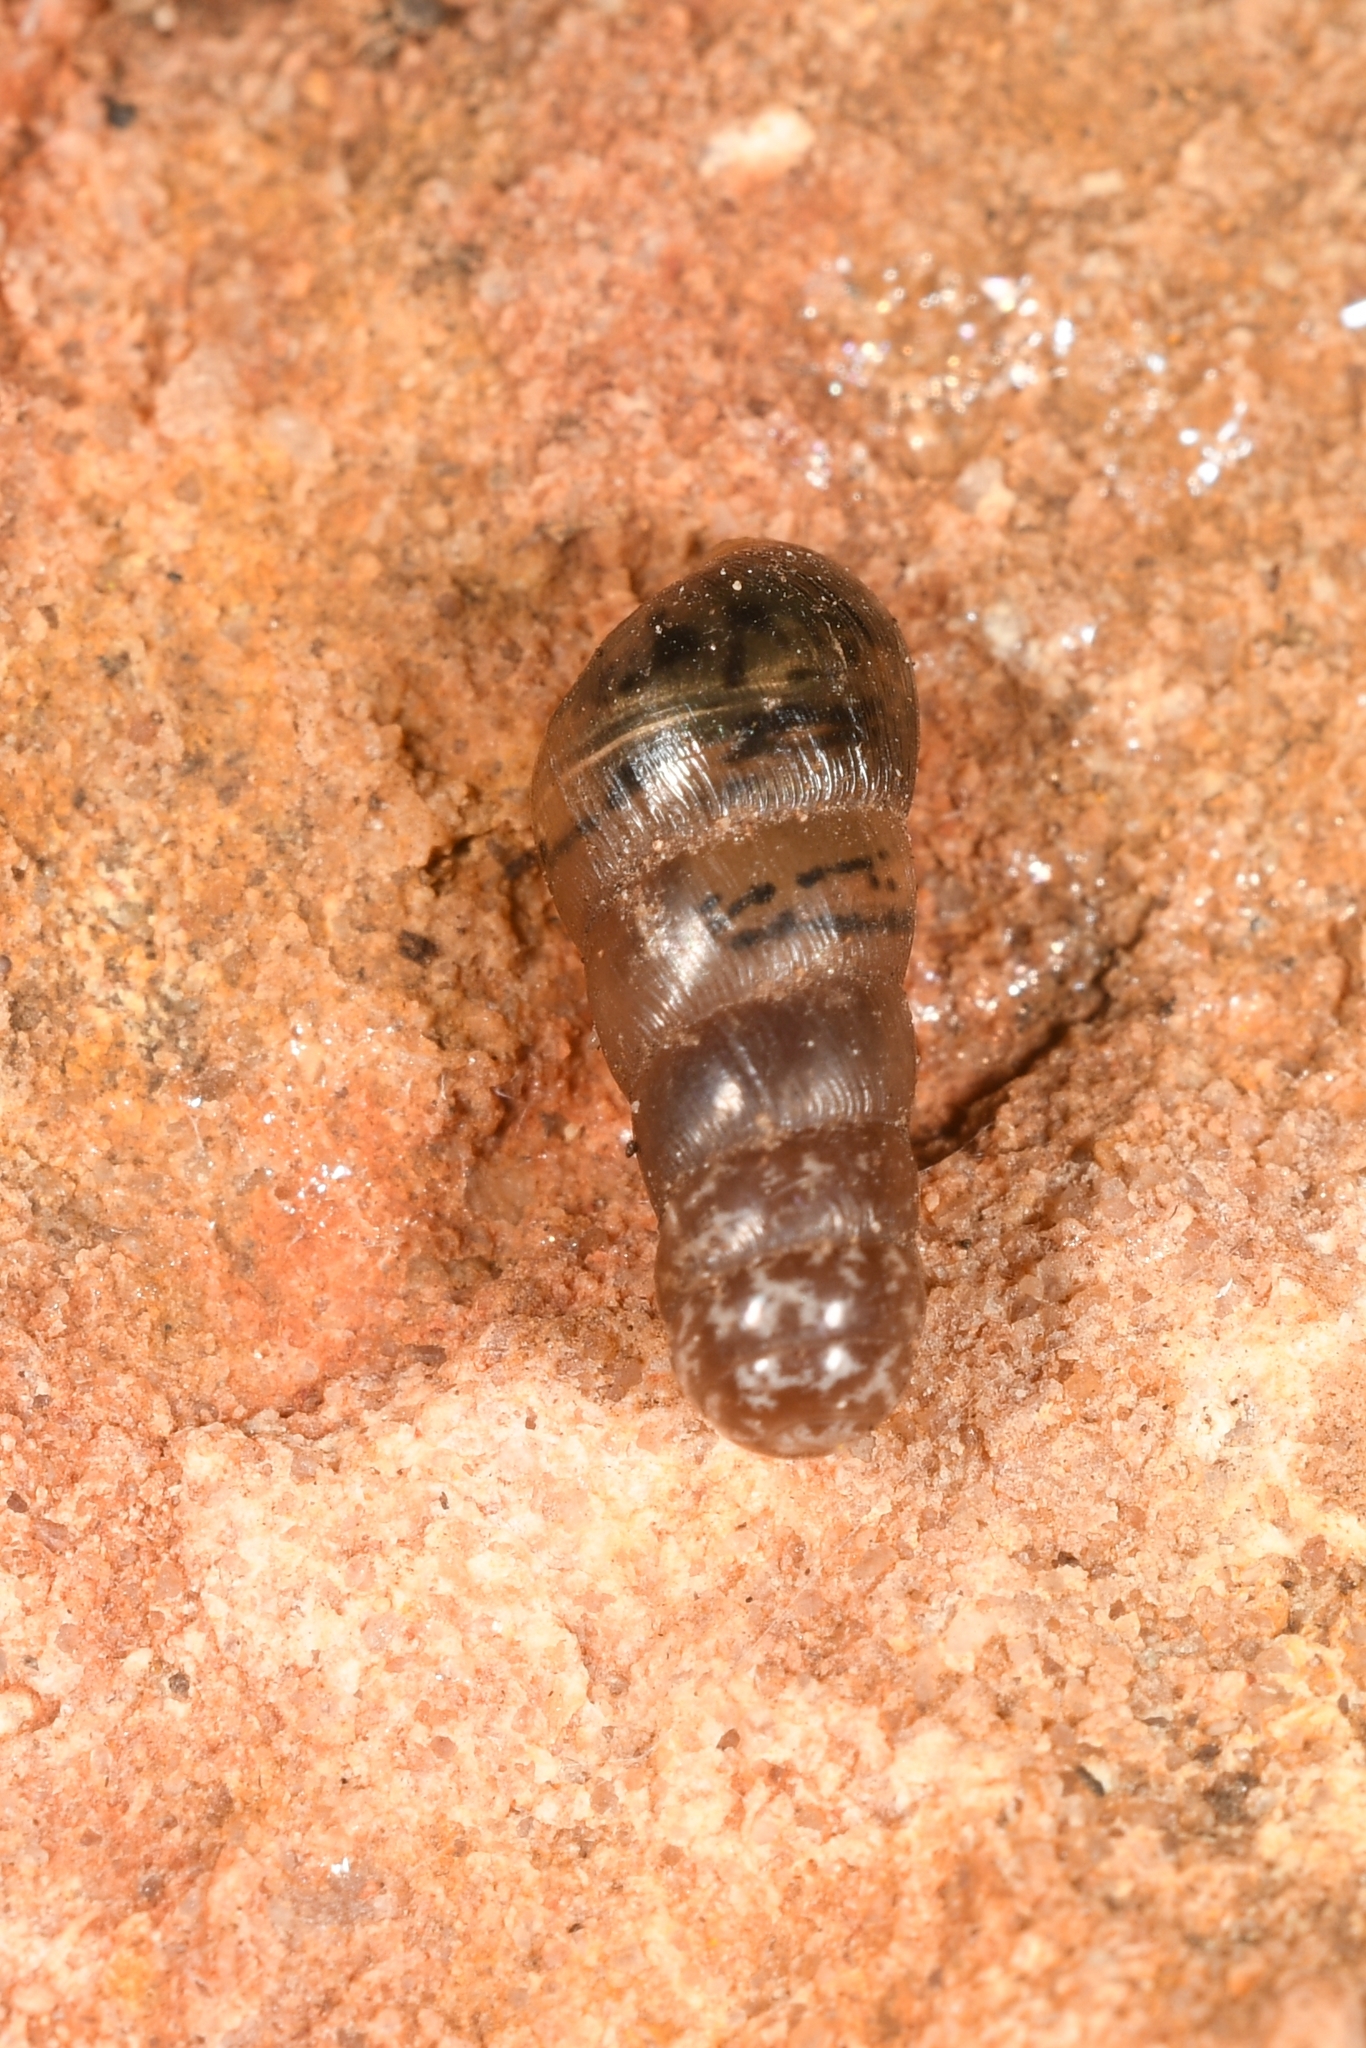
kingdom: Animalia
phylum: Mollusca
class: Gastropoda
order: Stylommatophora
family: Achatinidae
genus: Rumina
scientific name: Rumina decollata
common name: Decollate snail
